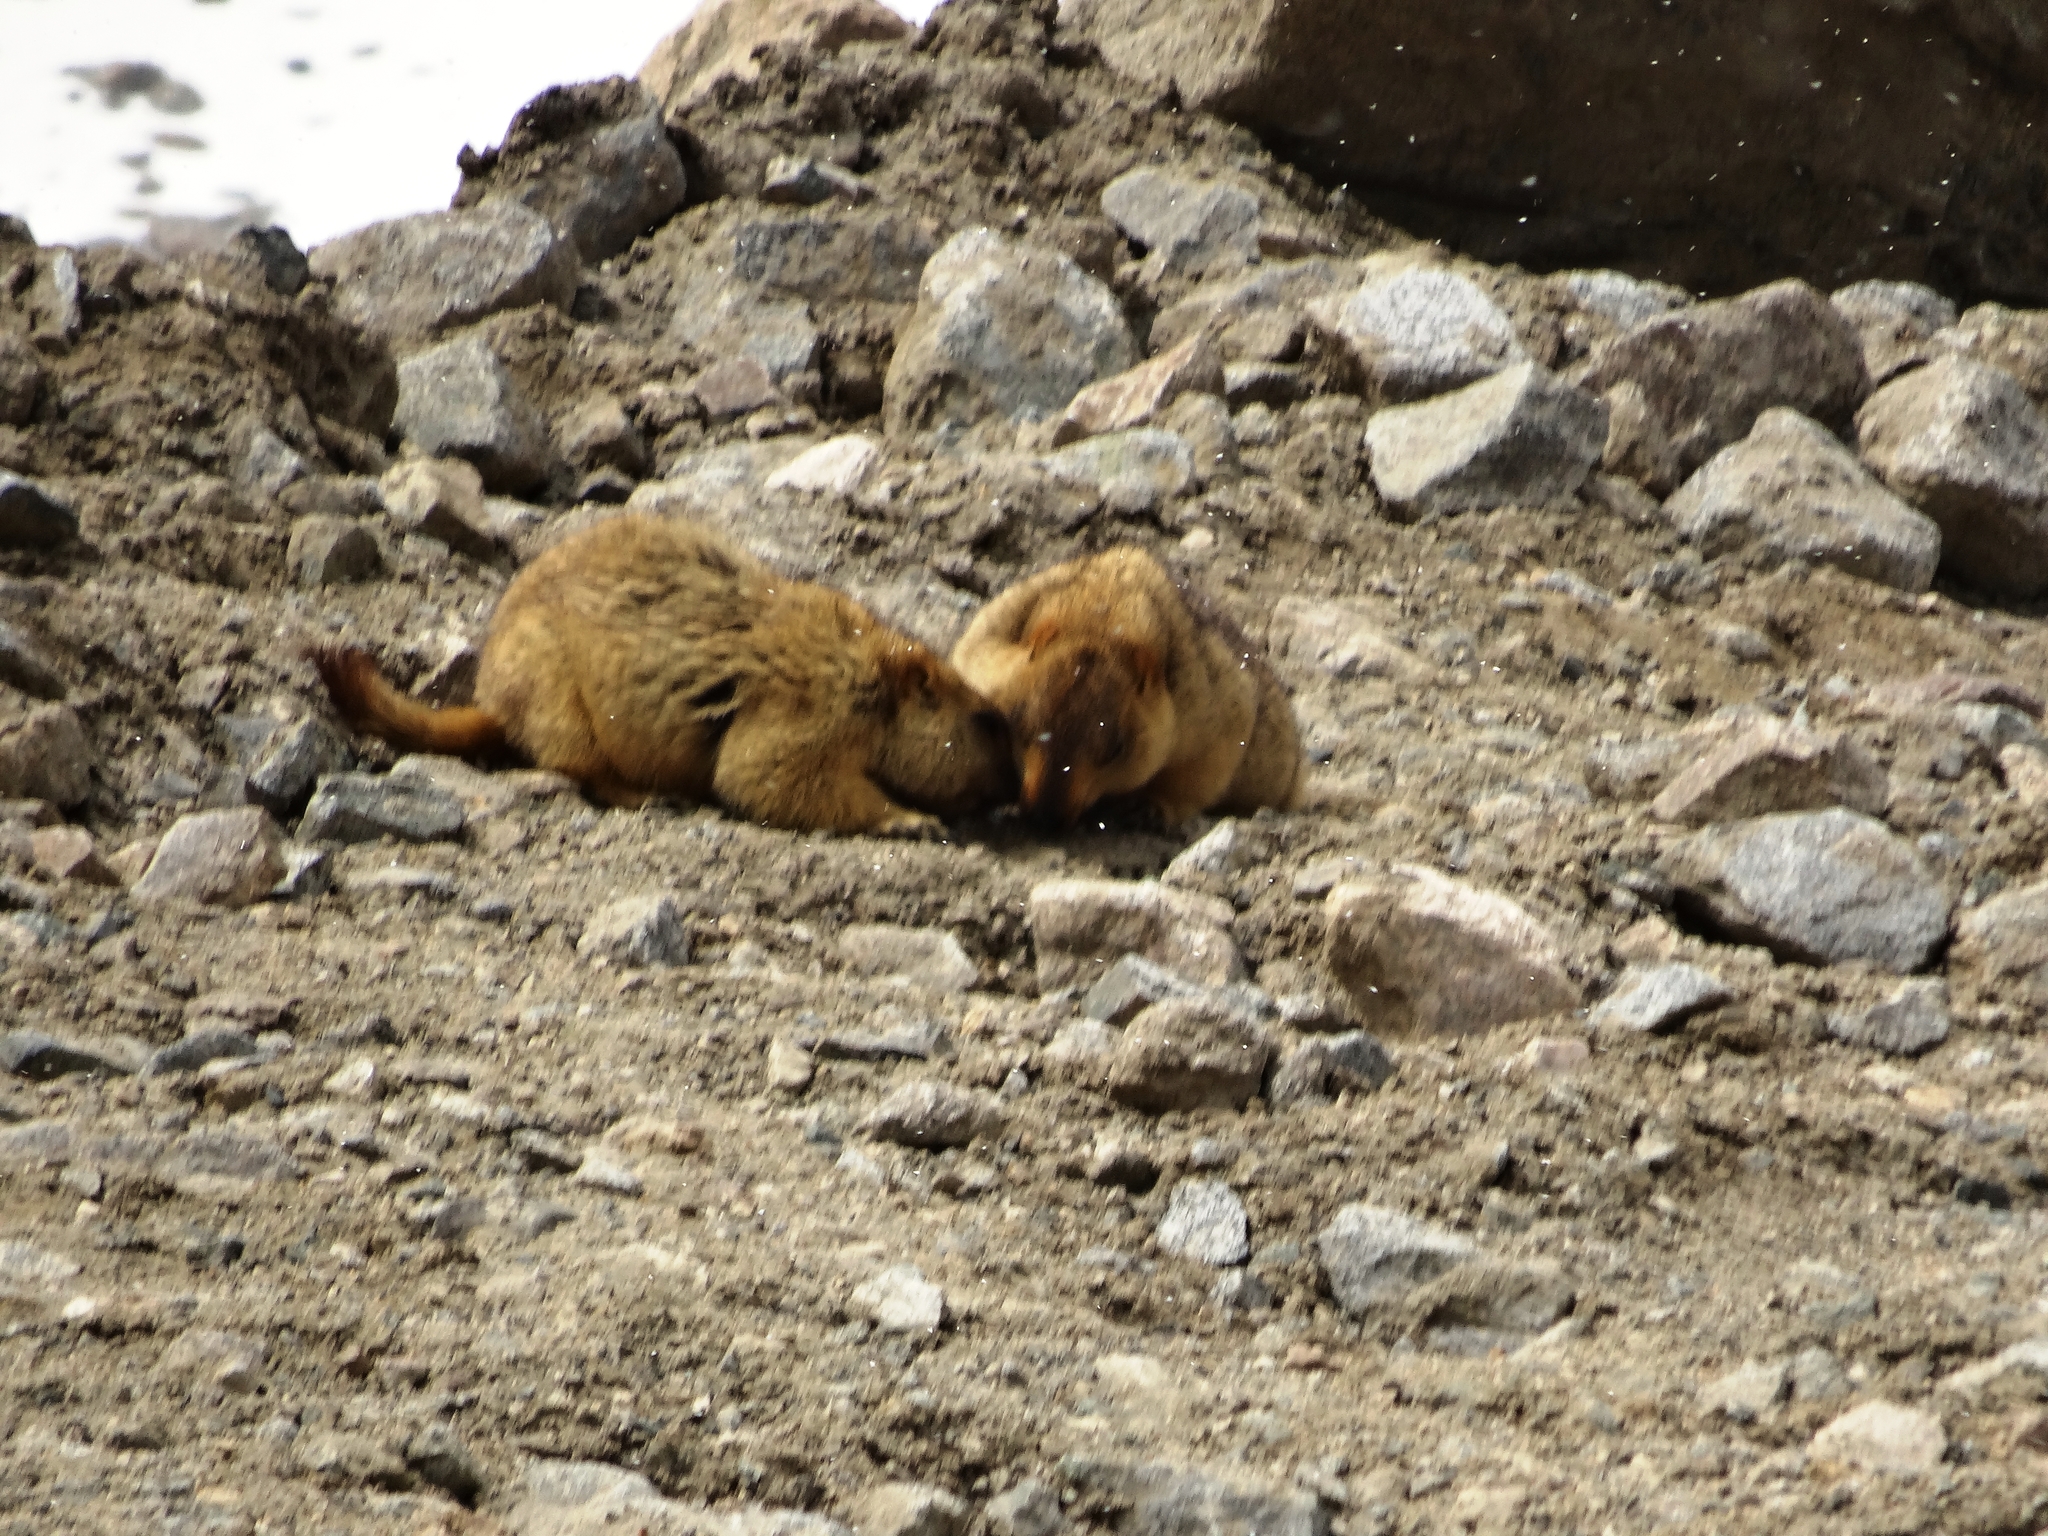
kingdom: Animalia
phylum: Chordata
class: Mammalia
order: Rodentia
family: Sciuridae
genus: Marmota
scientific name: Marmota himalayana
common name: Himalayan marmot
